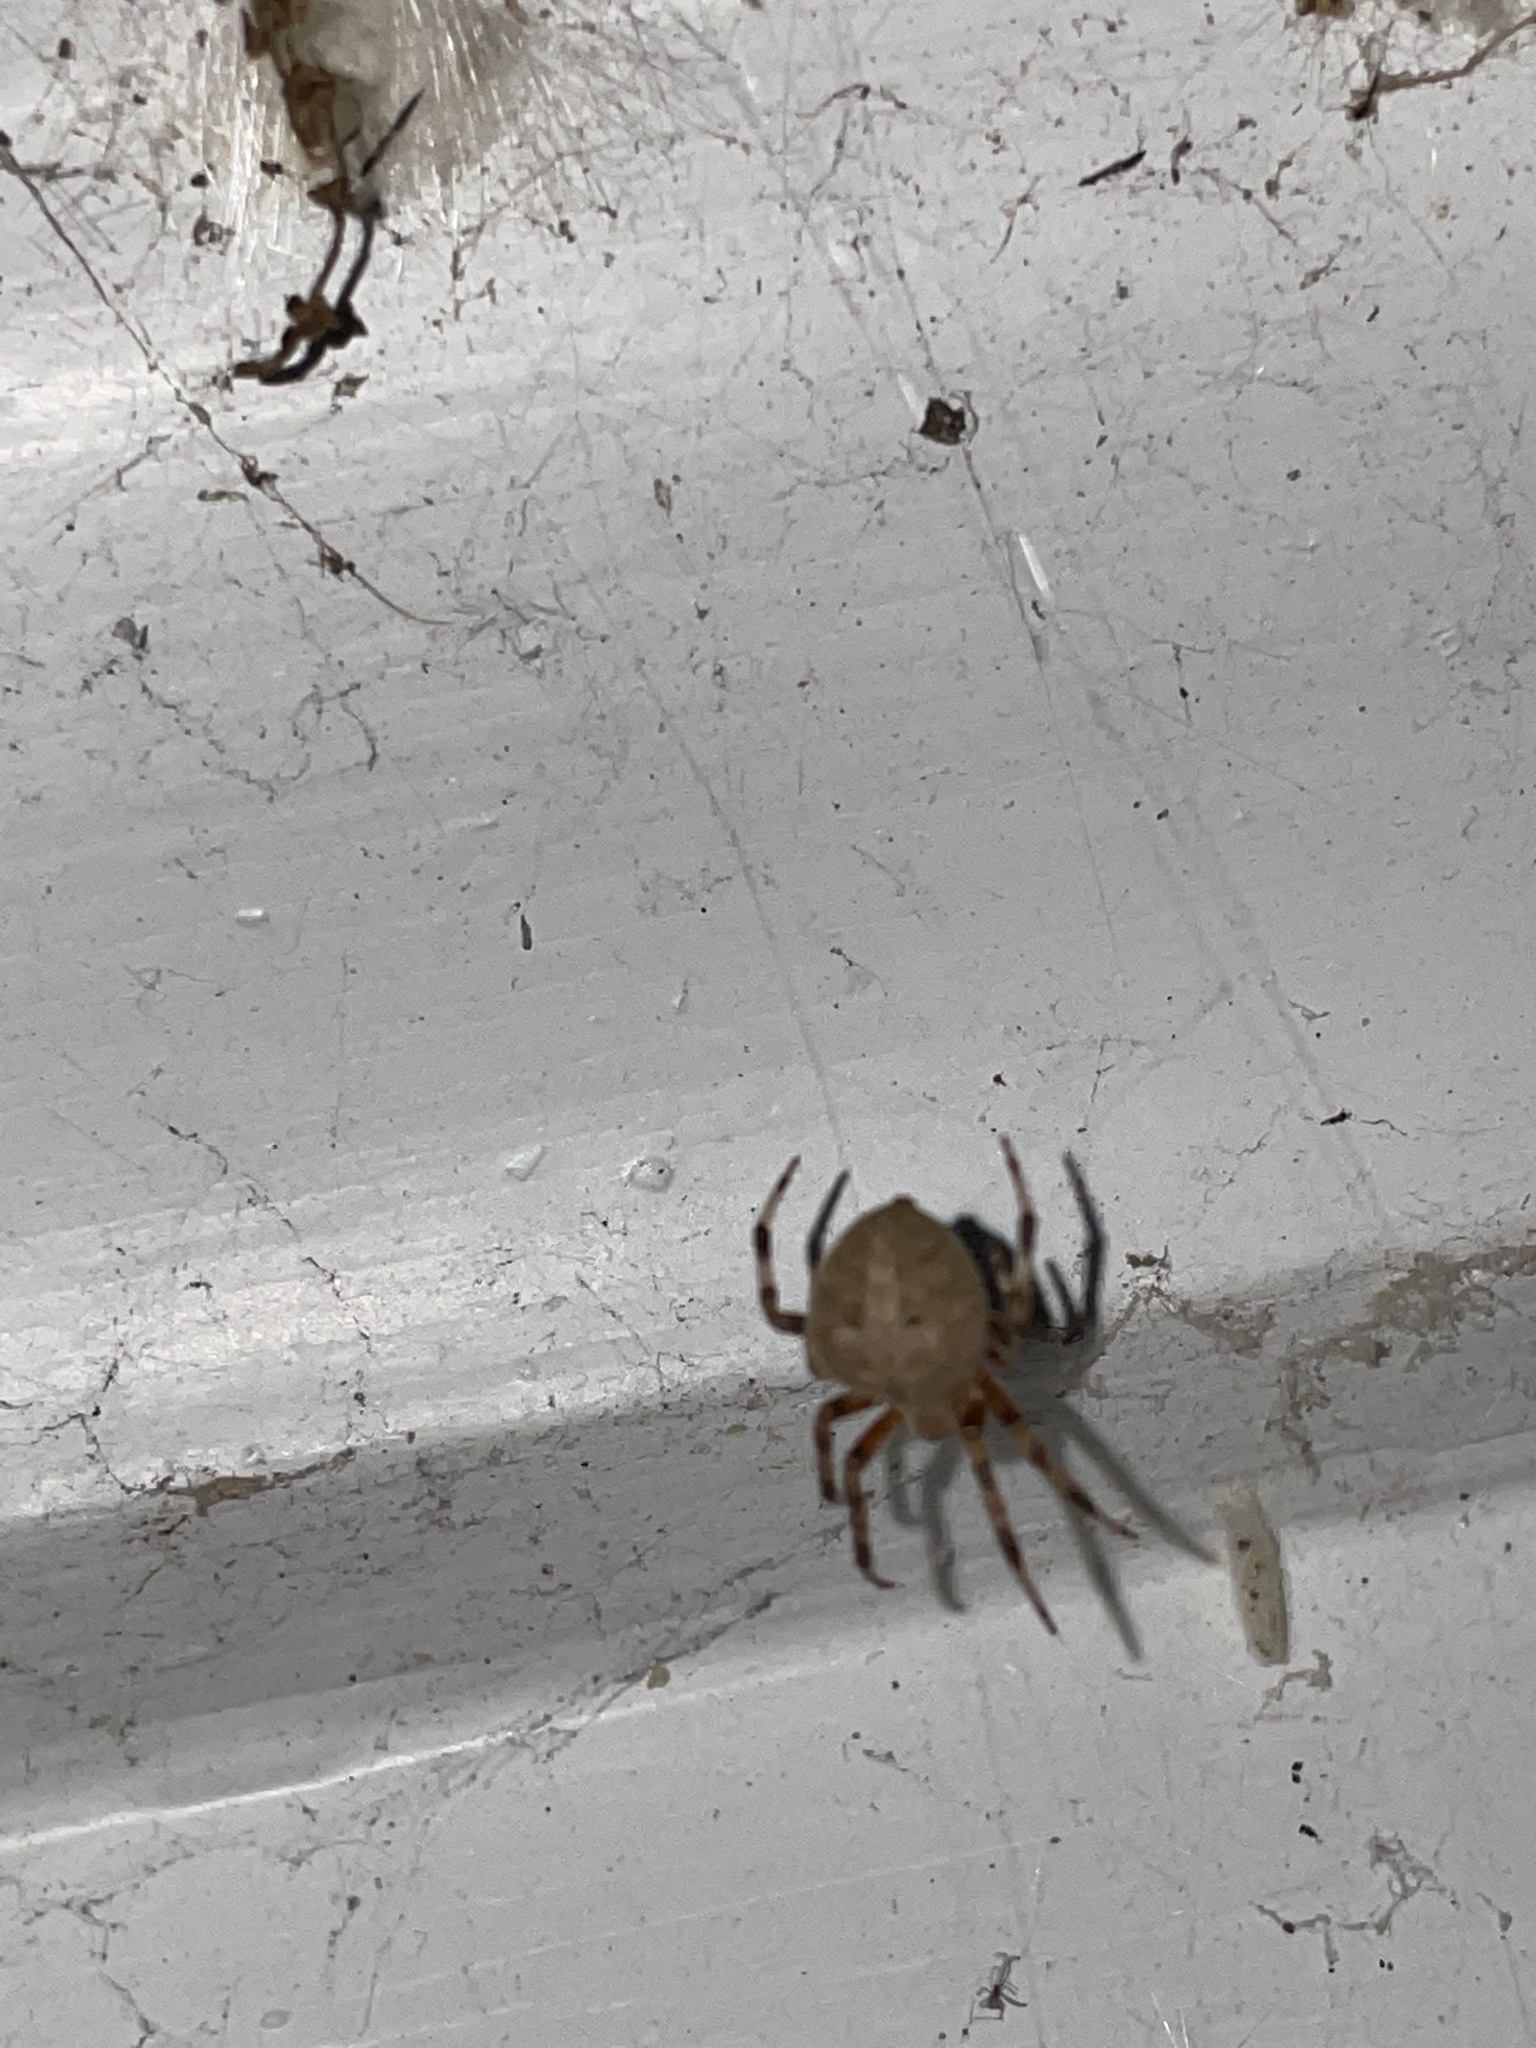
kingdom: Animalia
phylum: Arthropoda
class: Arachnida
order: Araneae
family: Araneidae
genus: Neoscona
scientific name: Neoscona crucifera
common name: Spotted orbweaver
